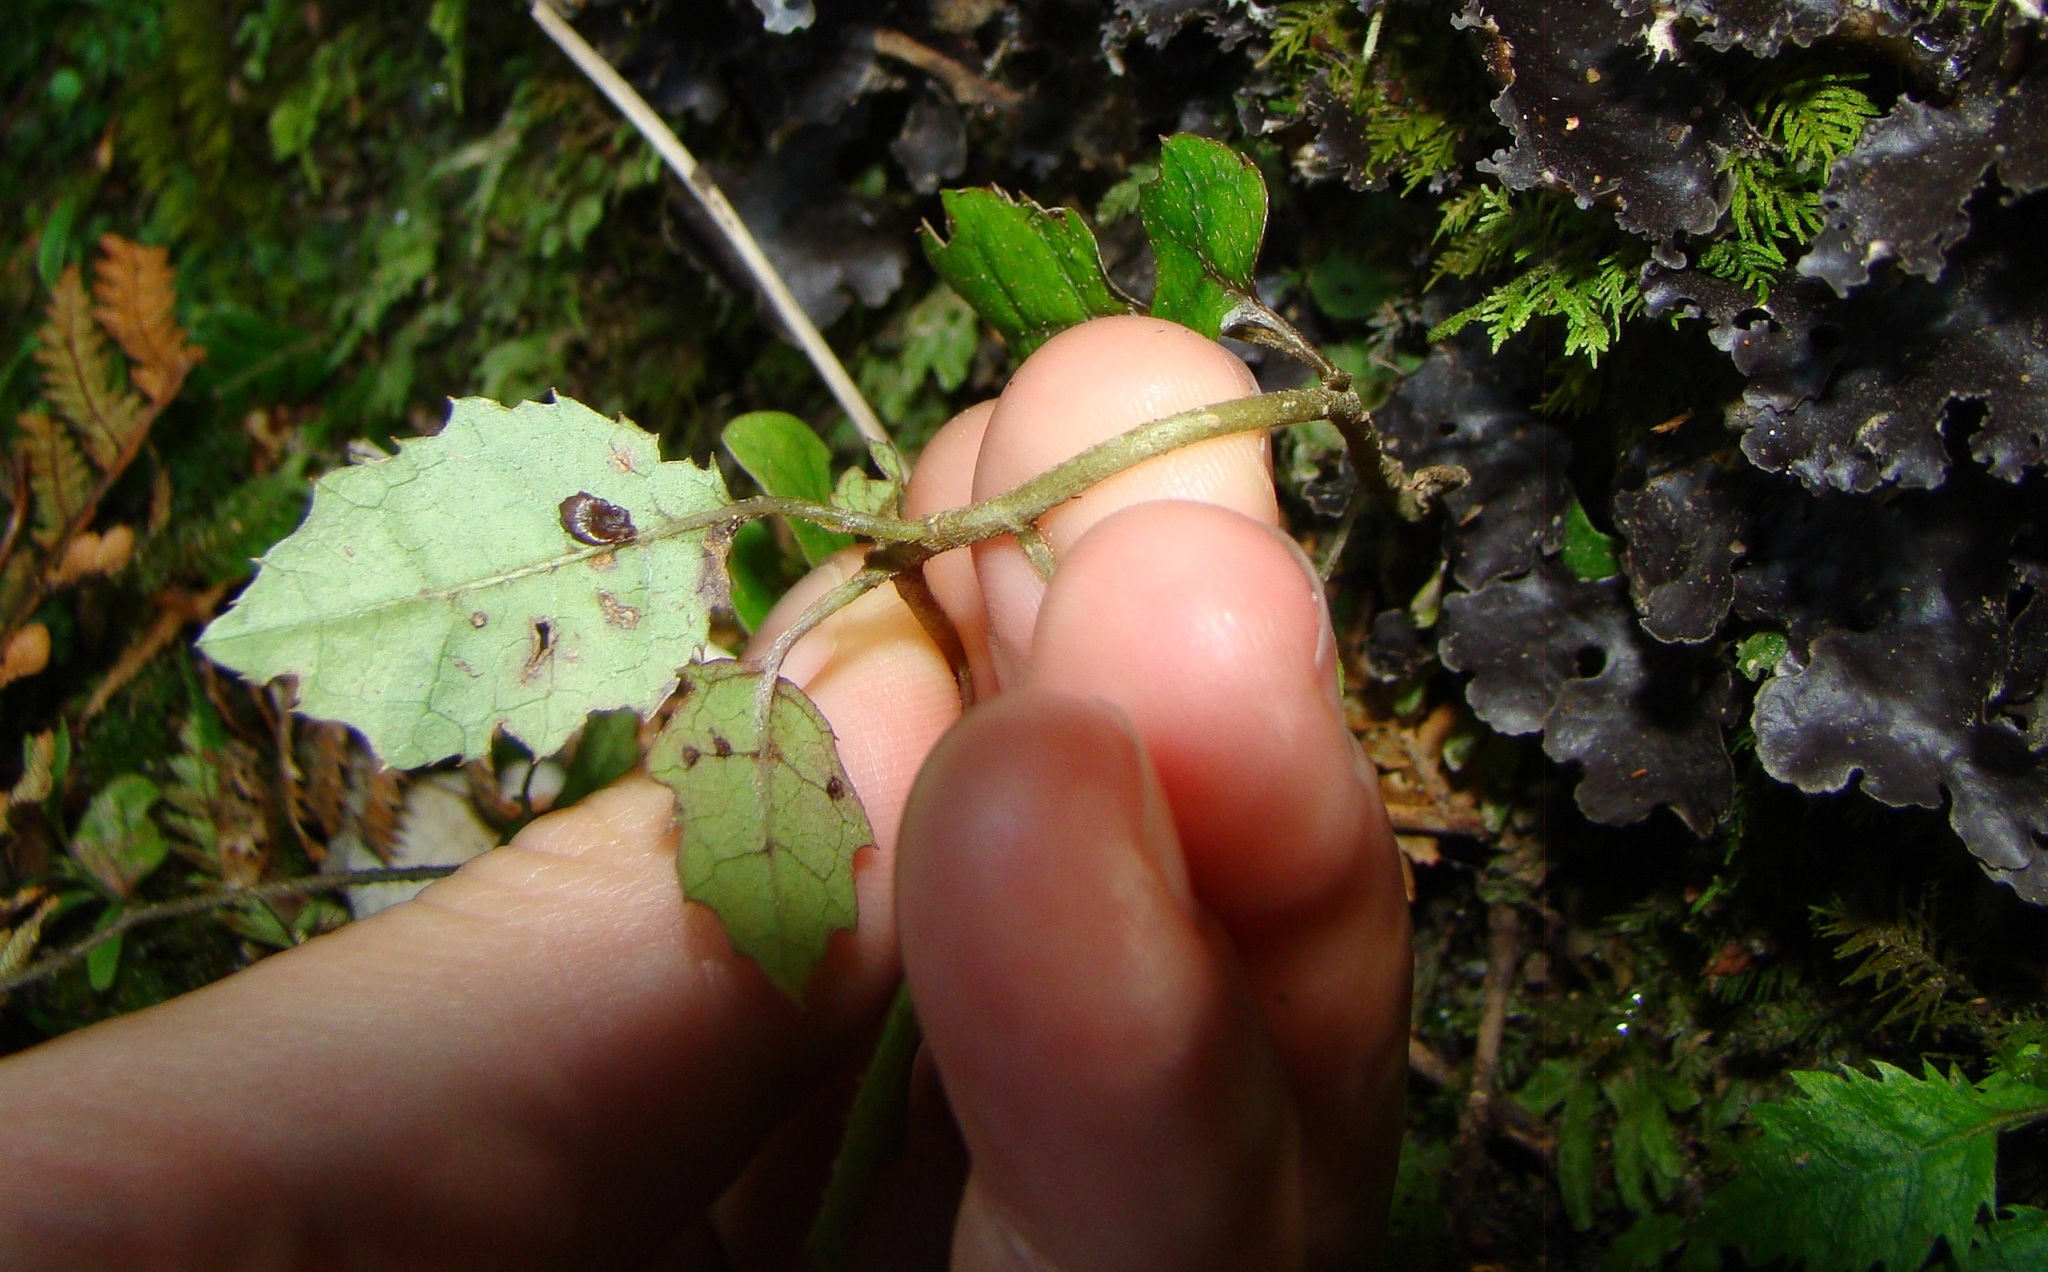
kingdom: Plantae
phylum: Tracheophyta
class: Magnoliopsida
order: Asterales
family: Rousseaceae
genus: Carpodetus
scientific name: Carpodetus serratus
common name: White mapau
